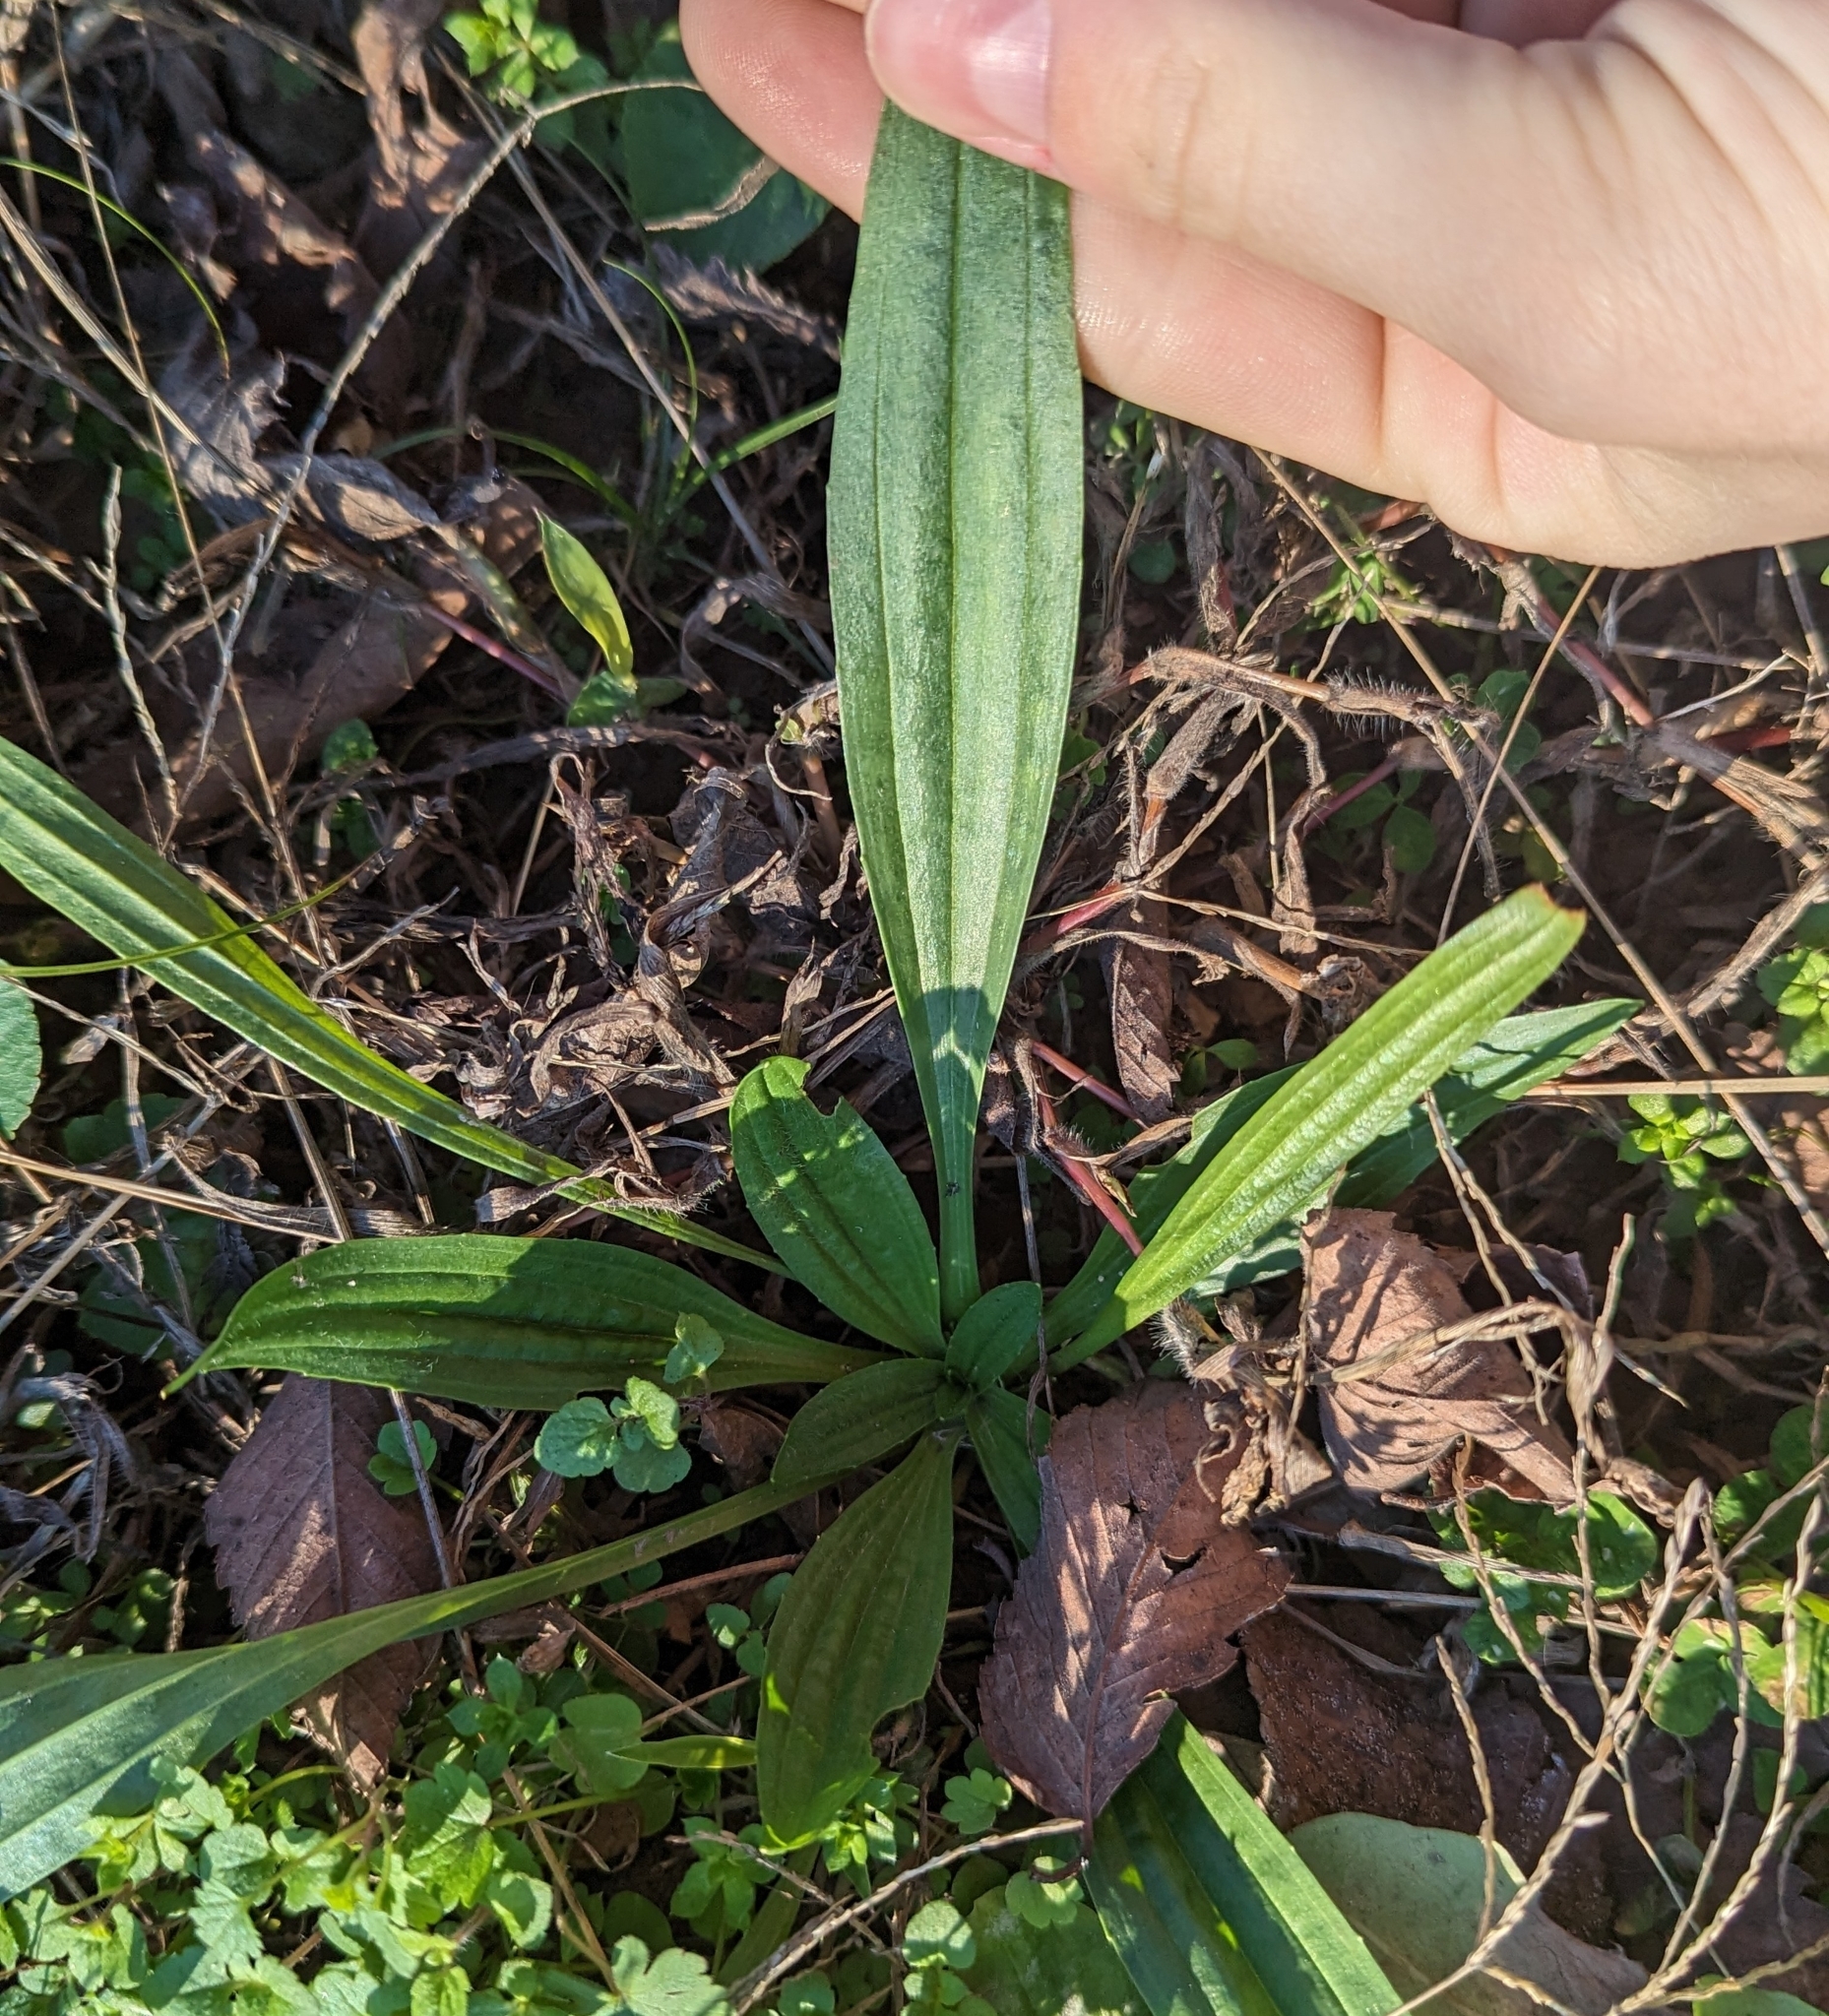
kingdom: Plantae
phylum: Tracheophyta
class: Magnoliopsida
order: Lamiales
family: Plantaginaceae
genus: Plantago
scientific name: Plantago lanceolata
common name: Ribwort plantain
